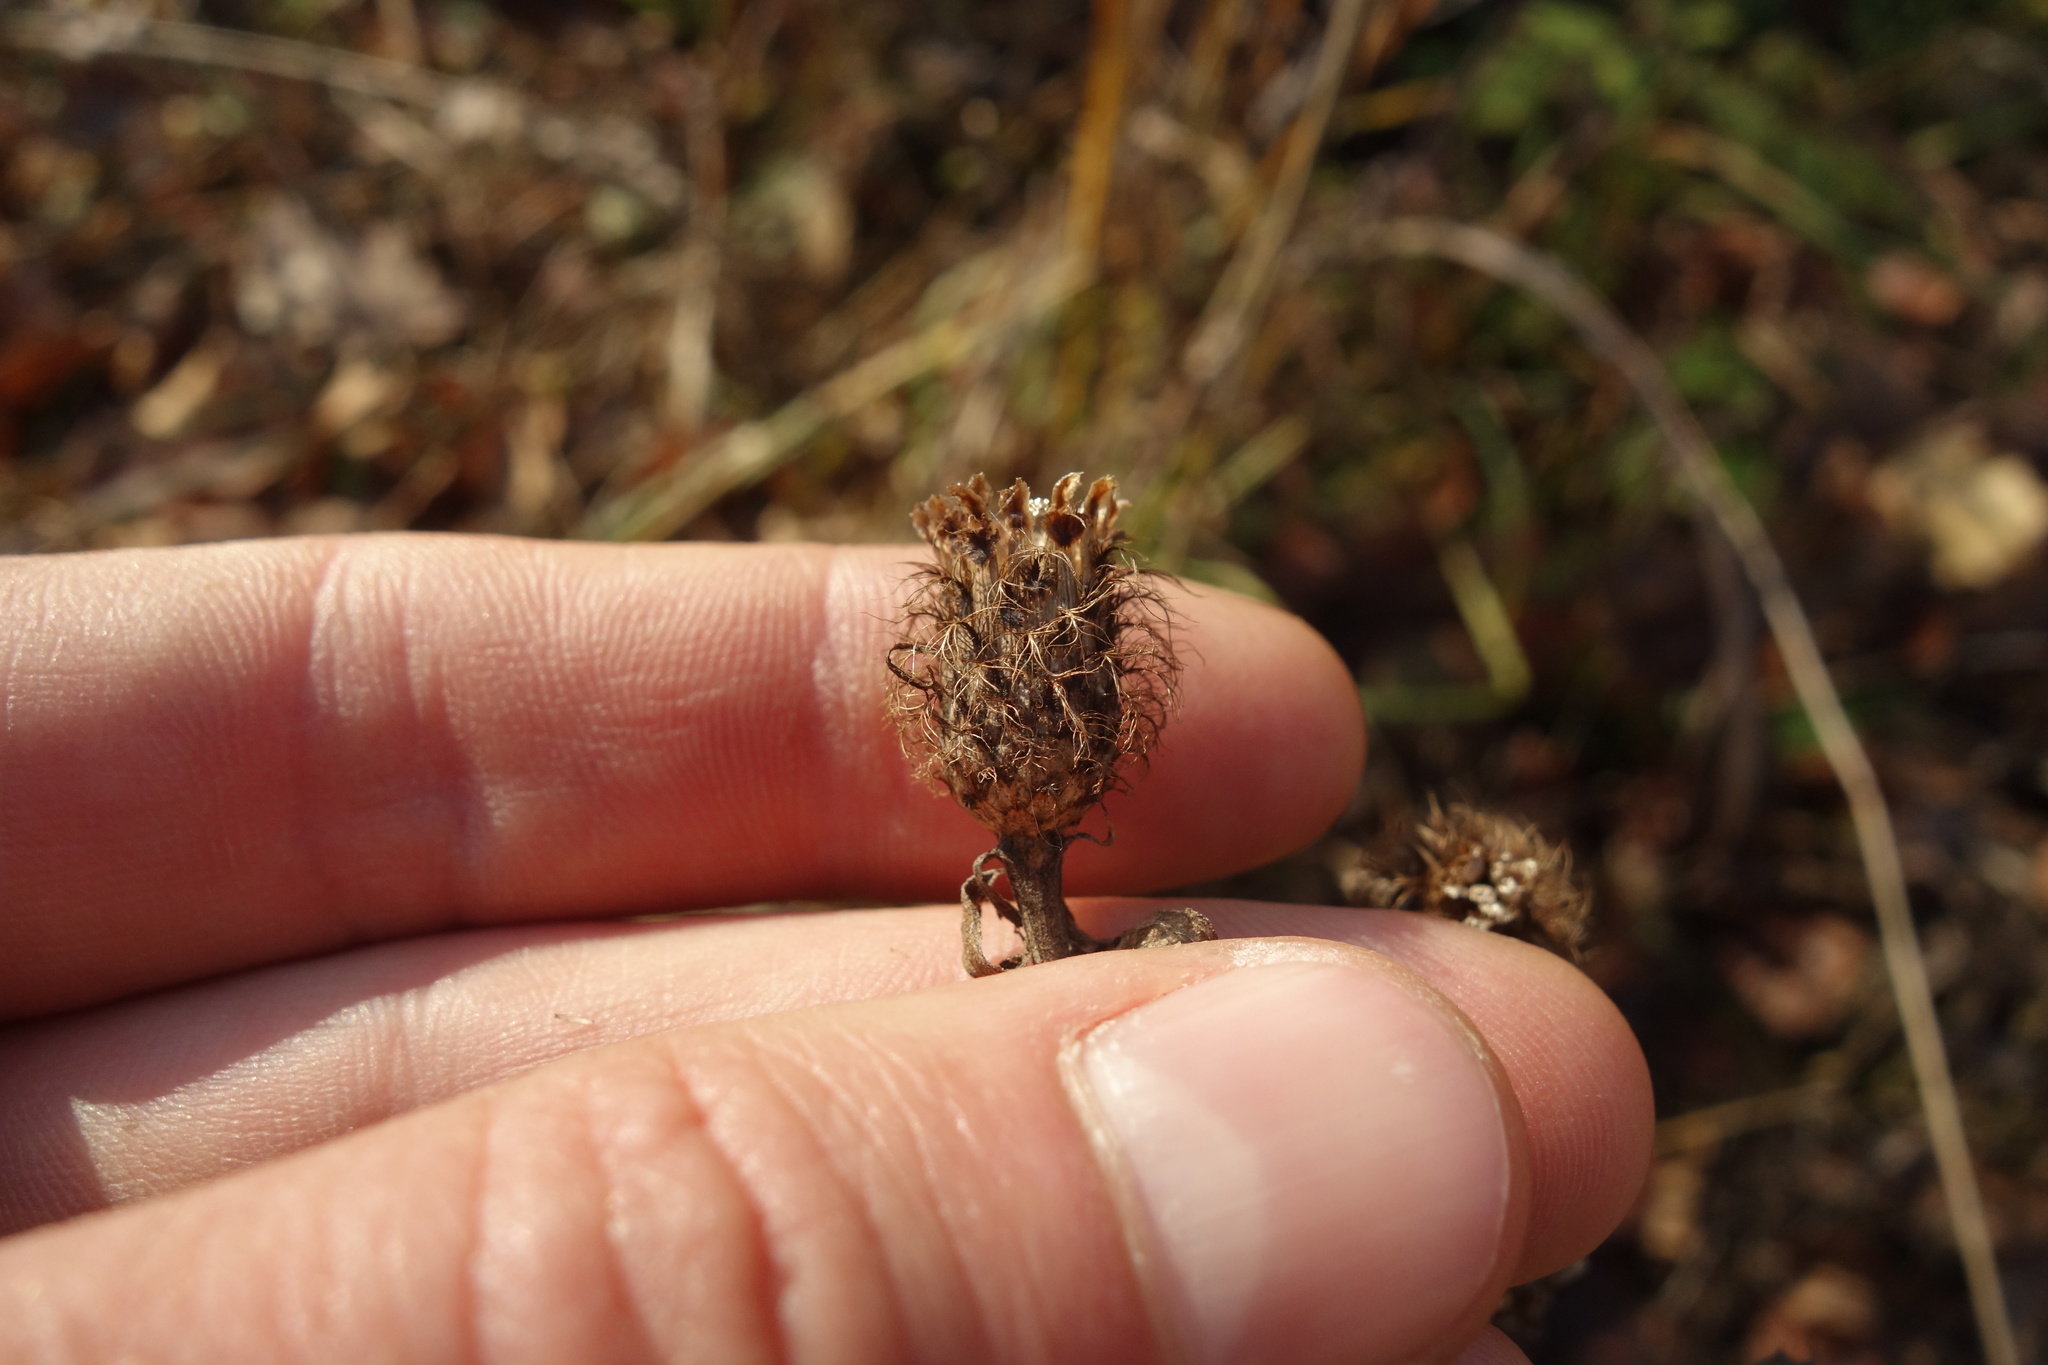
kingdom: Plantae
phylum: Tracheophyta
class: Magnoliopsida
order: Asterales
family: Asteraceae
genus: Centaurea
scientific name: Centaurea pseudophrygia
